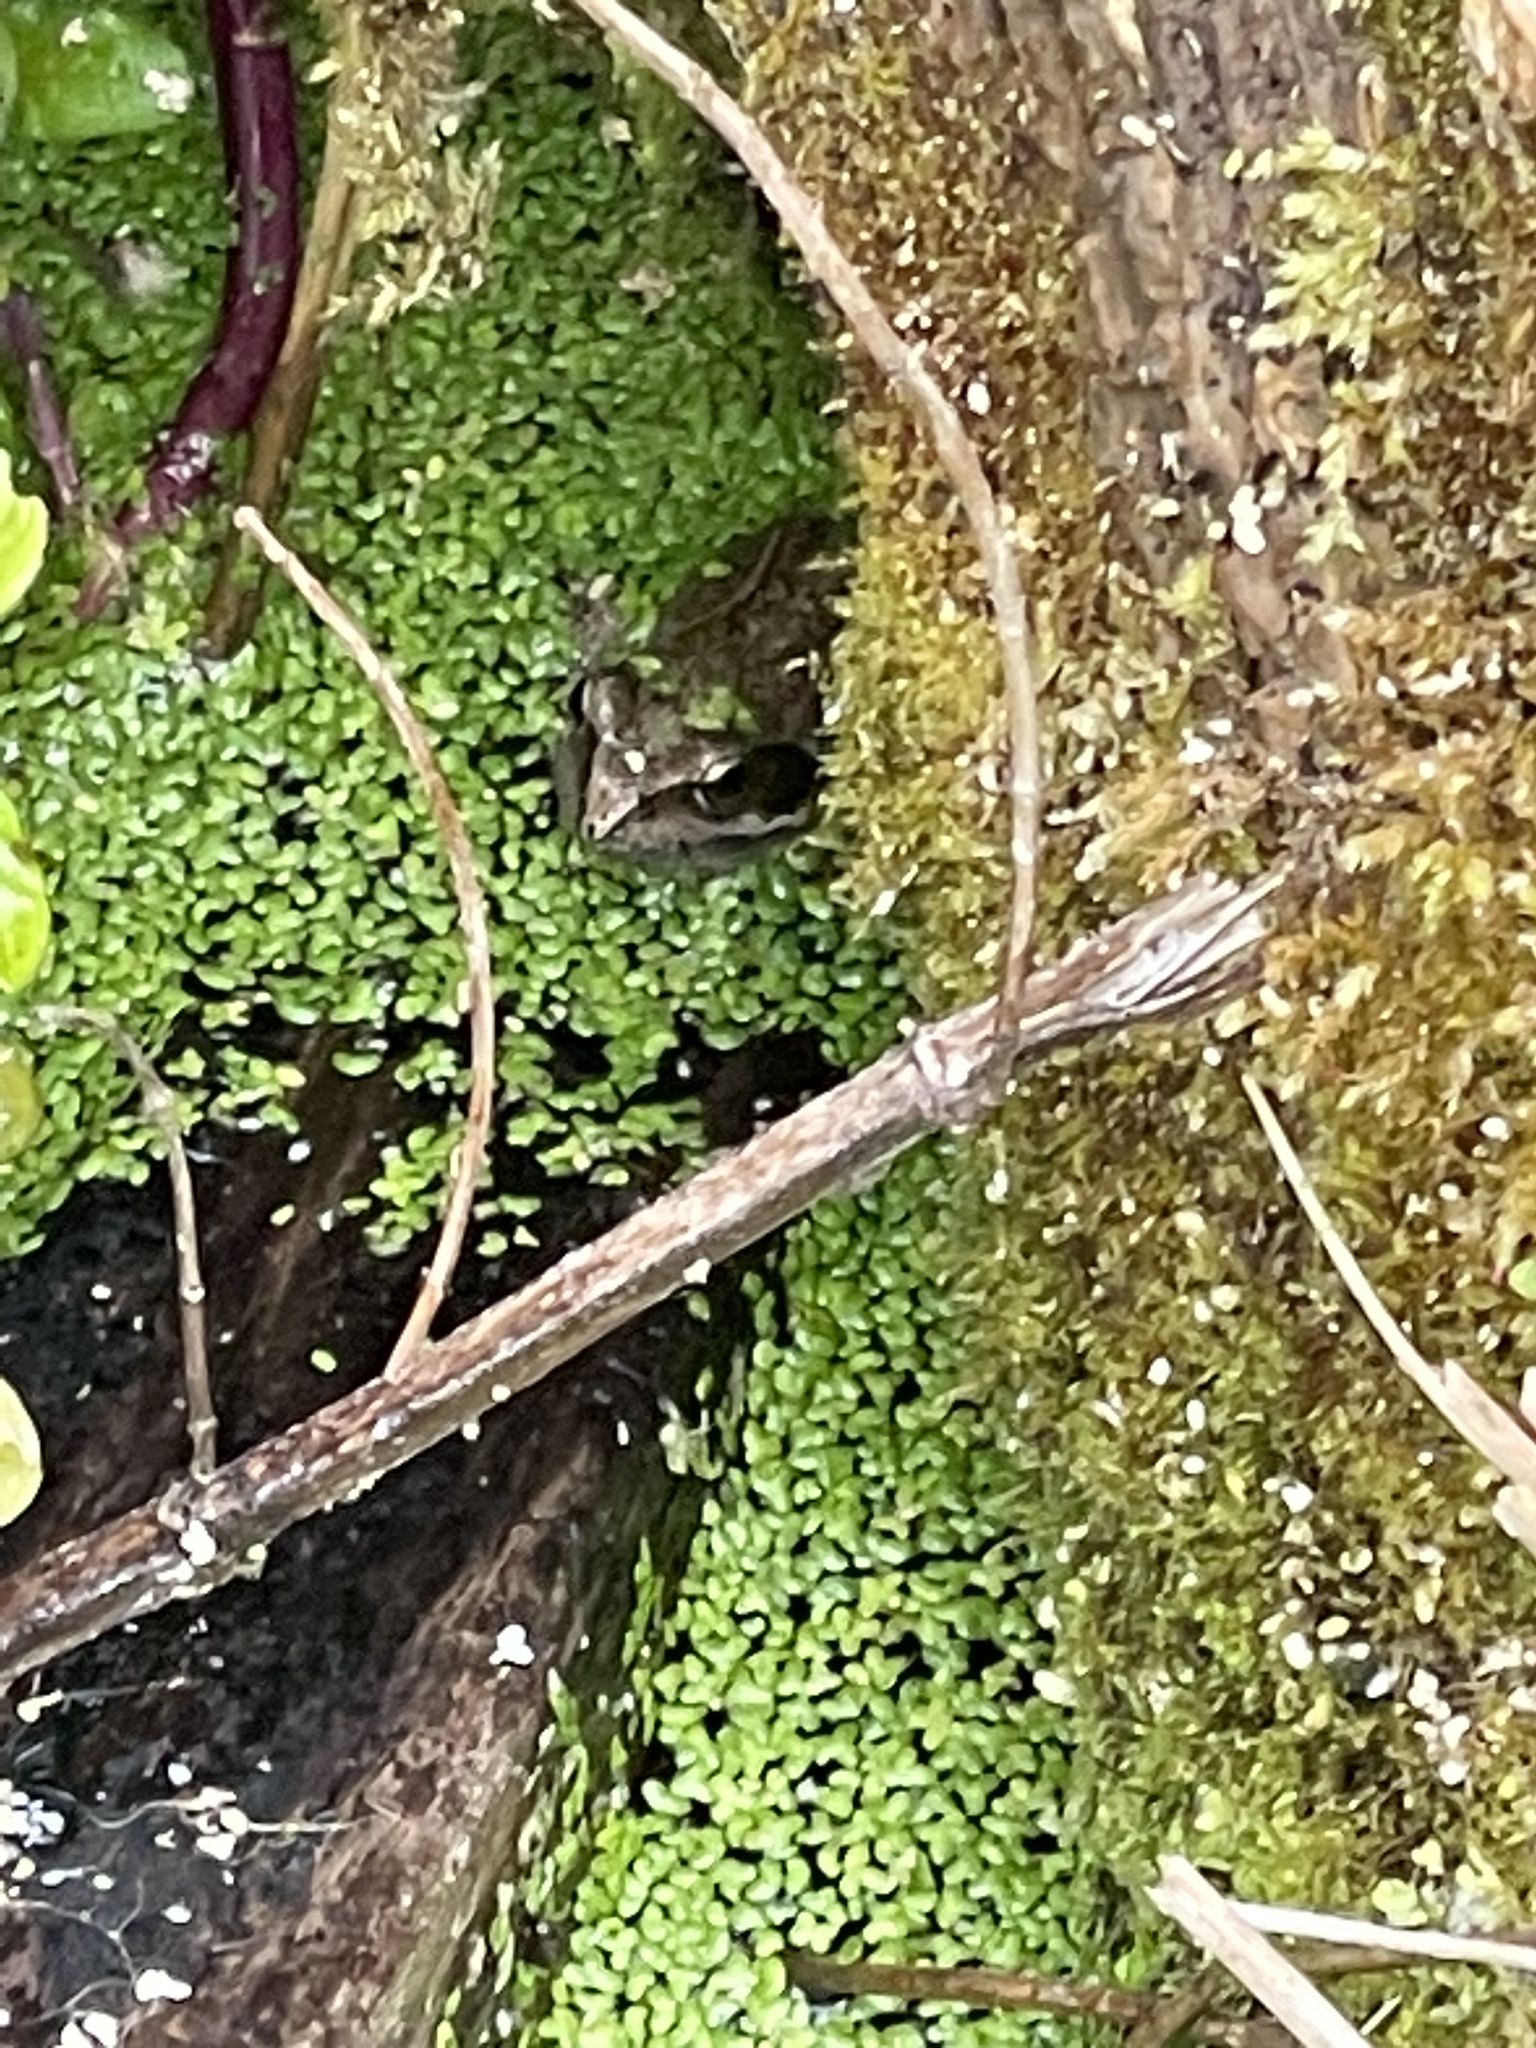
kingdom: Animalia
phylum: Chordata
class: Amphibia
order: Anura
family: Ranidae
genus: Rana
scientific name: Rana temporaria
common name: Common frog
